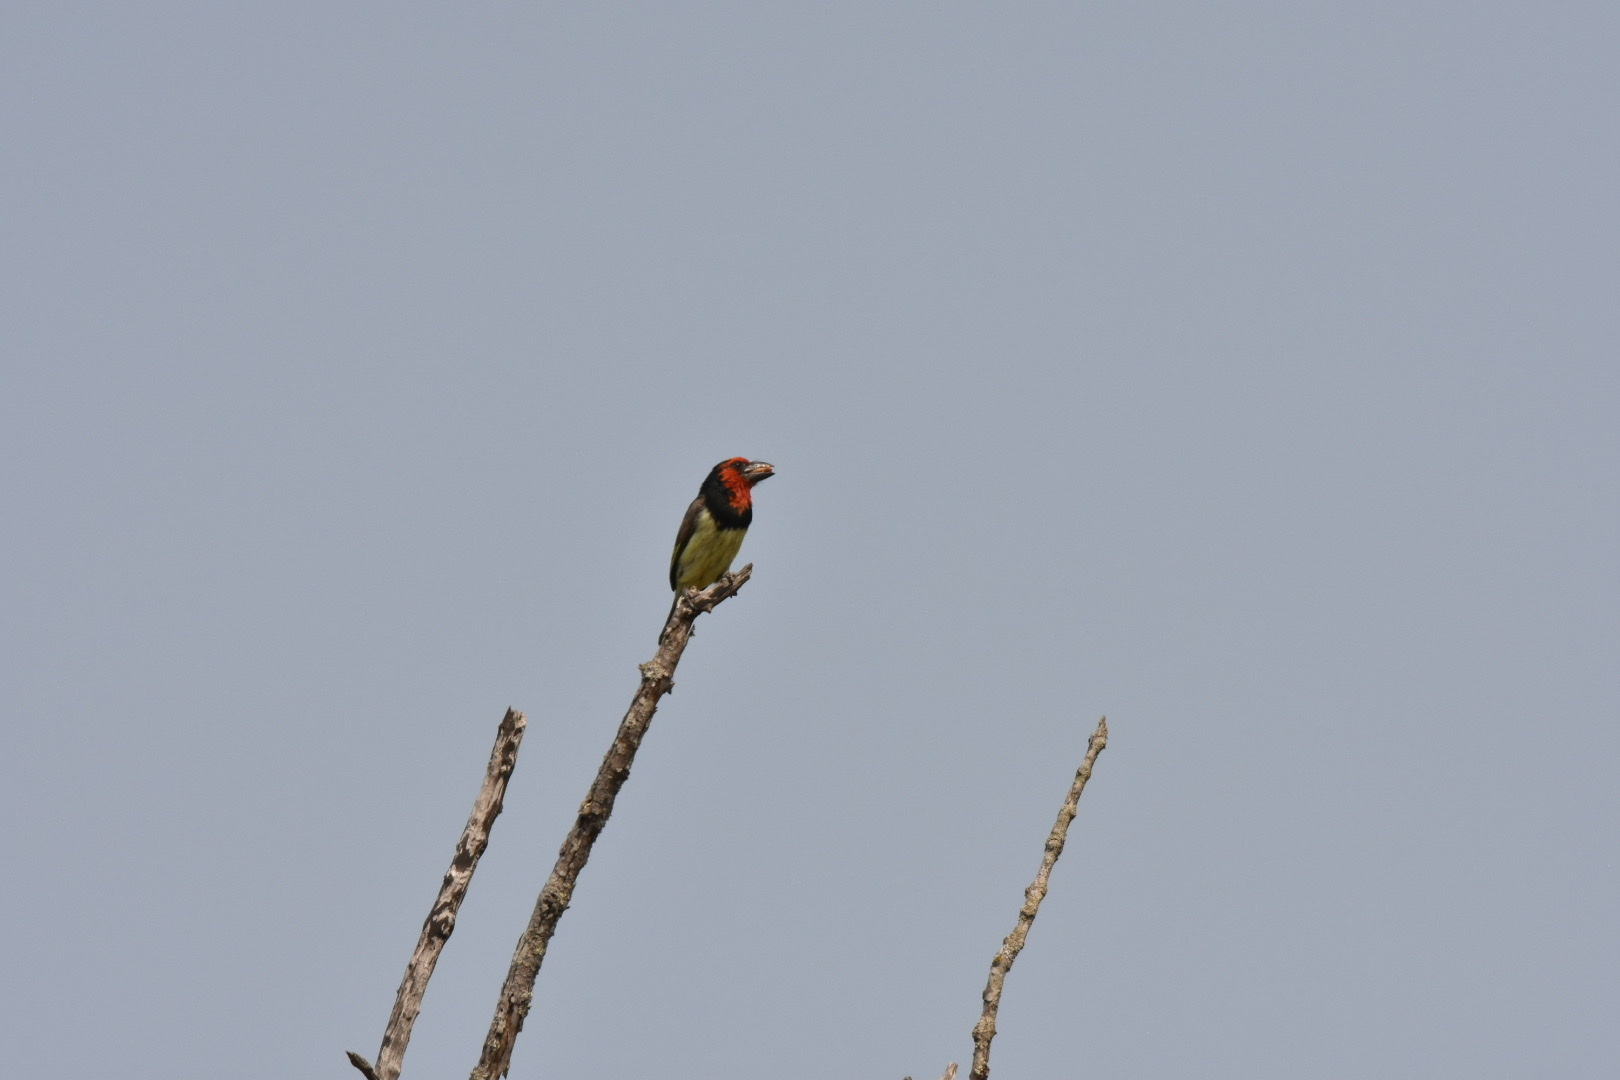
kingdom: Animalia
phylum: Chordata
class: Aves
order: Piciformes
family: Lybiidae
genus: Lybius
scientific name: Lybius torquatus
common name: Black-collared barbet
